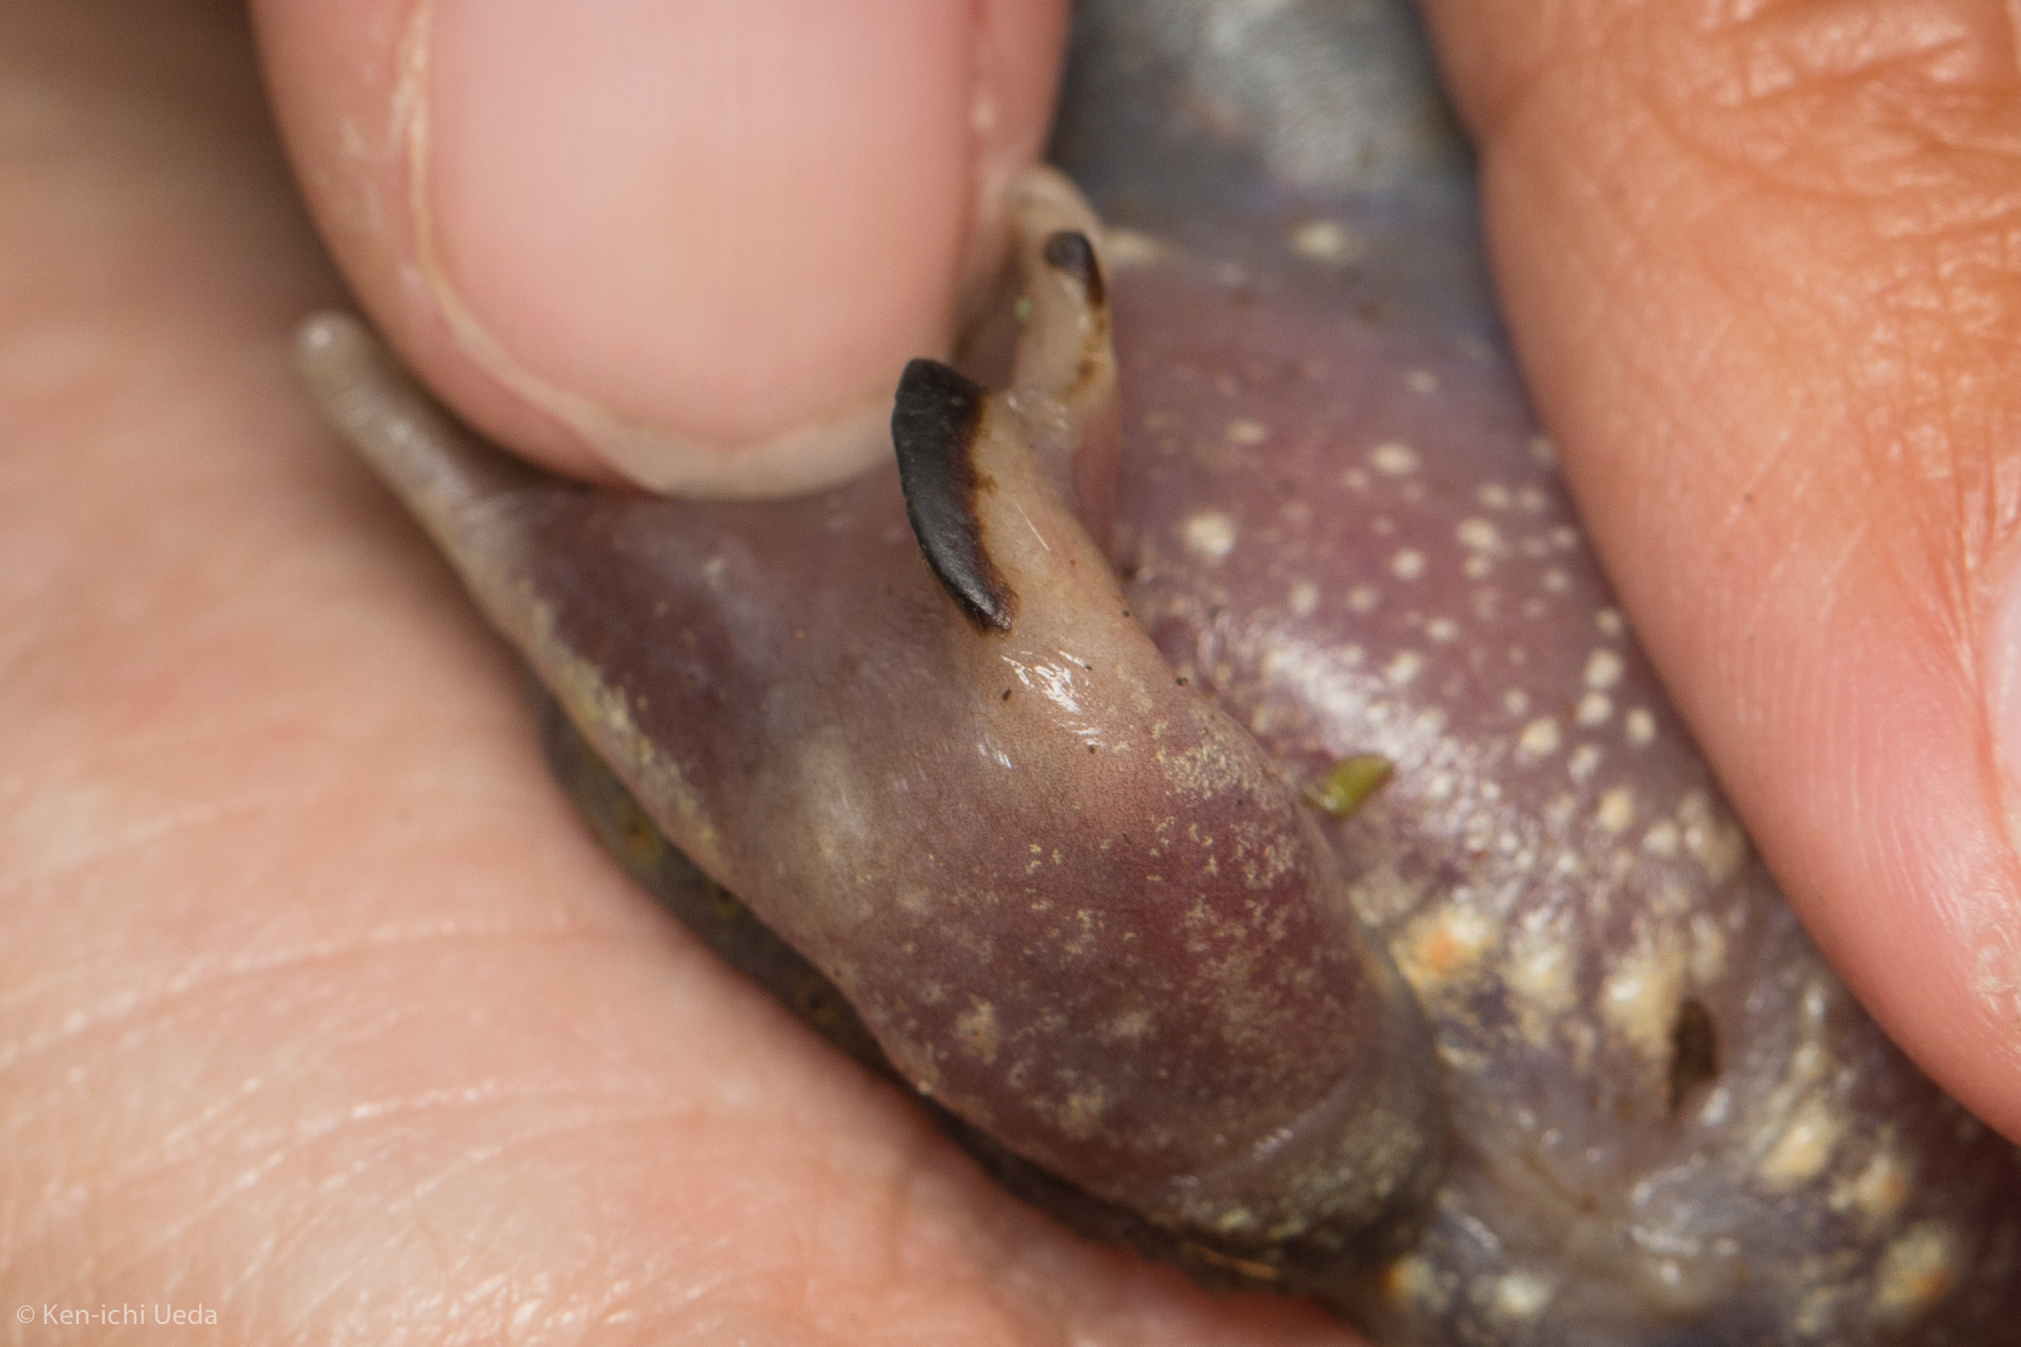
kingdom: Animalia
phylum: Chordata
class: Amphibia
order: Anura
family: Scaphiopodidae
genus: Scaphiopus
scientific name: Scaphiopus holbrookii
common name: Eastern spadefoot toad
